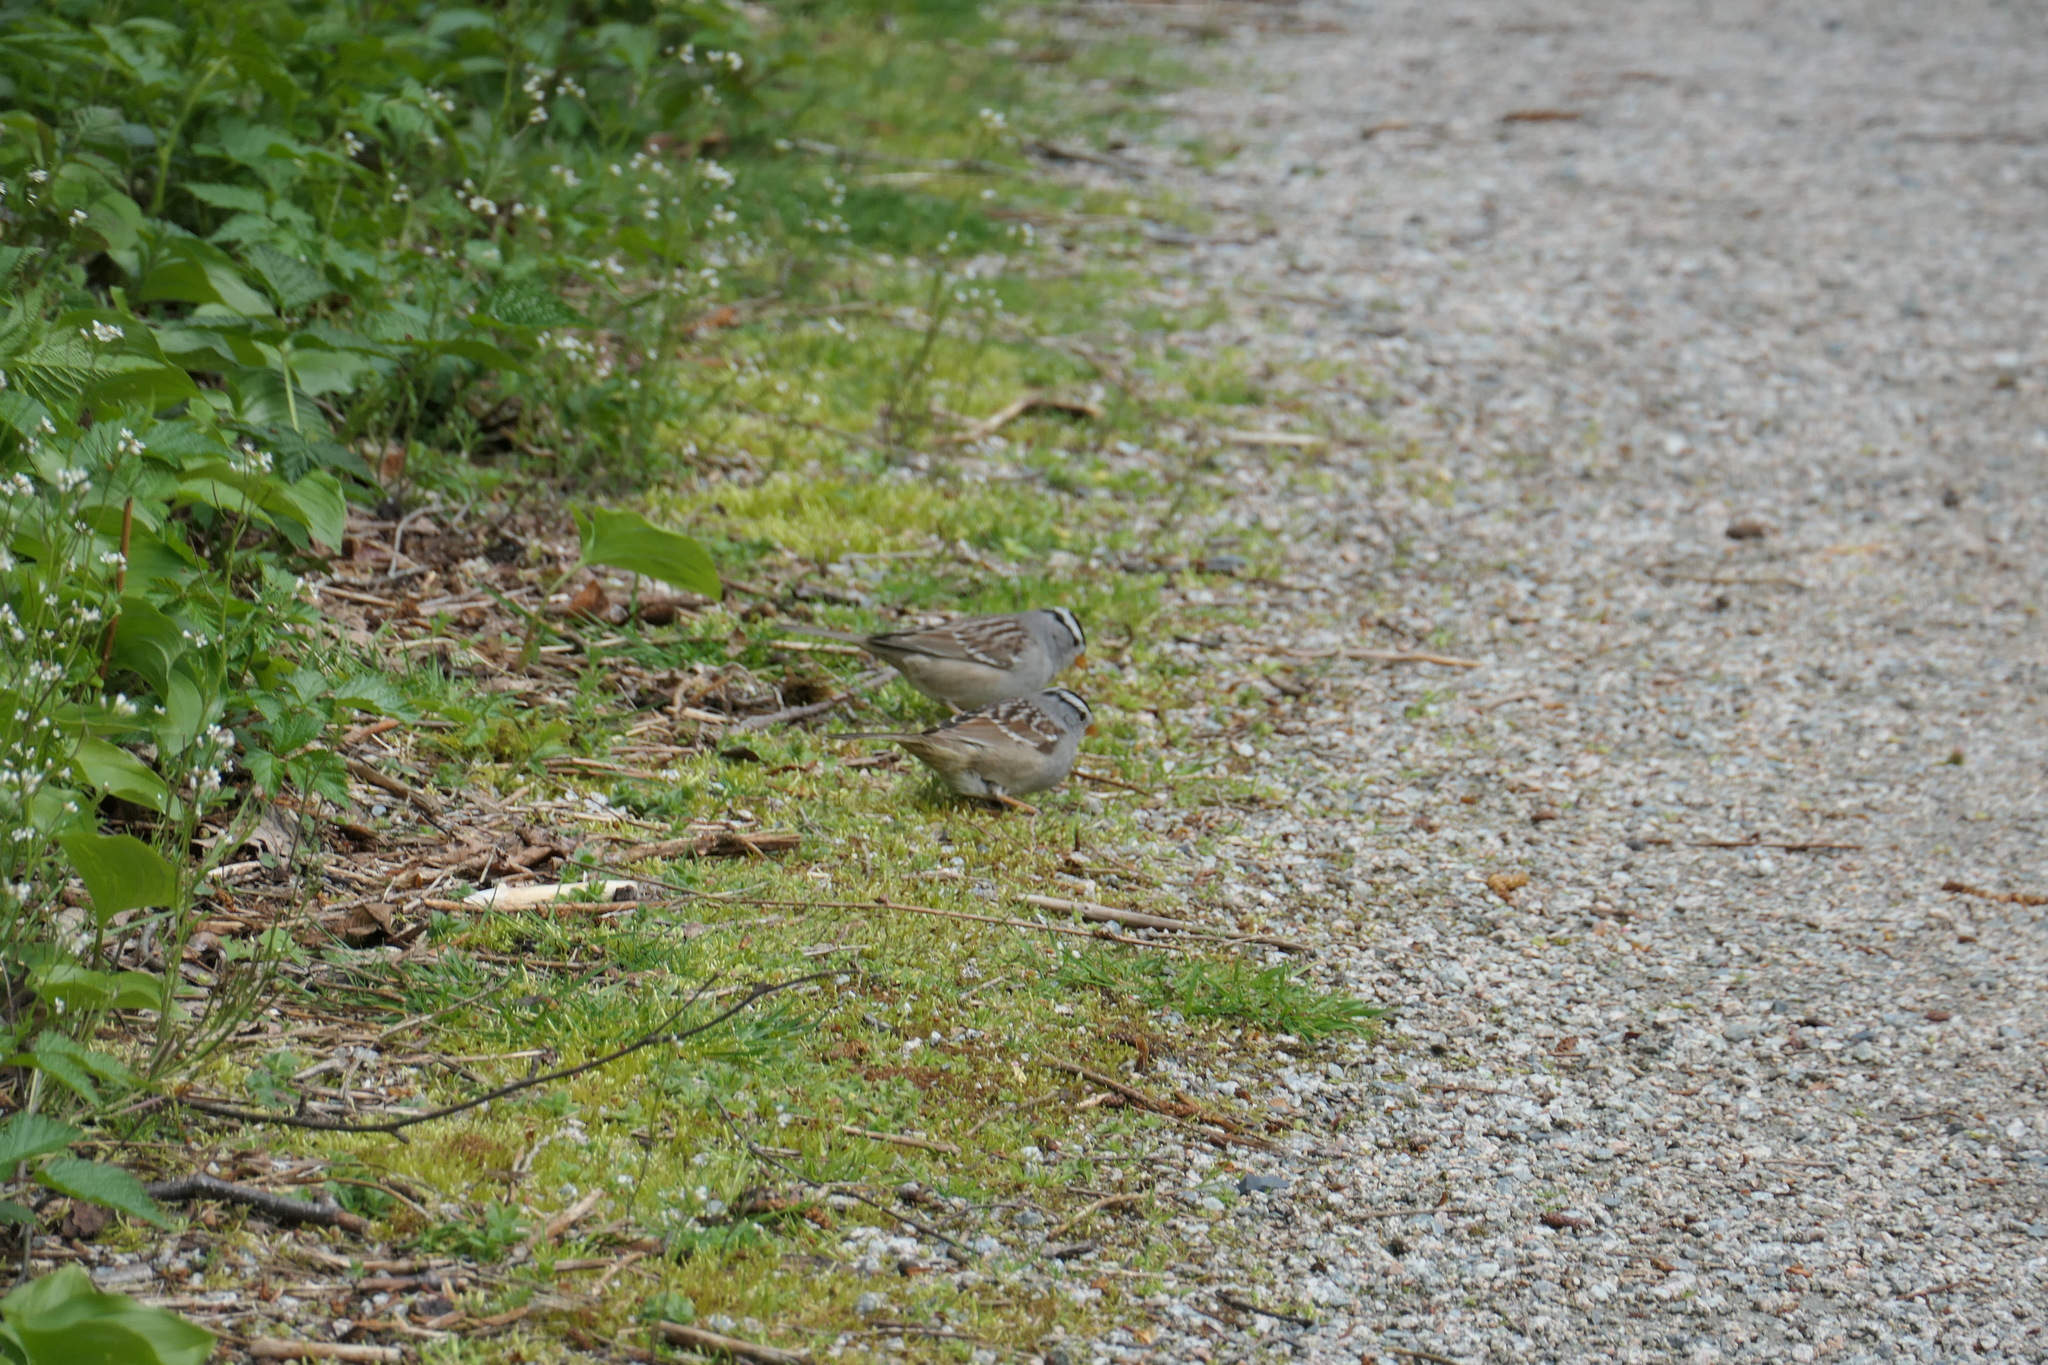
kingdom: Animalia
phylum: Chordata
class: Aves
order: Passeriformes
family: Passerellidae
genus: Zonotrichia
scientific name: Zonotrichia leucophrys
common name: White-crowned sparrow
